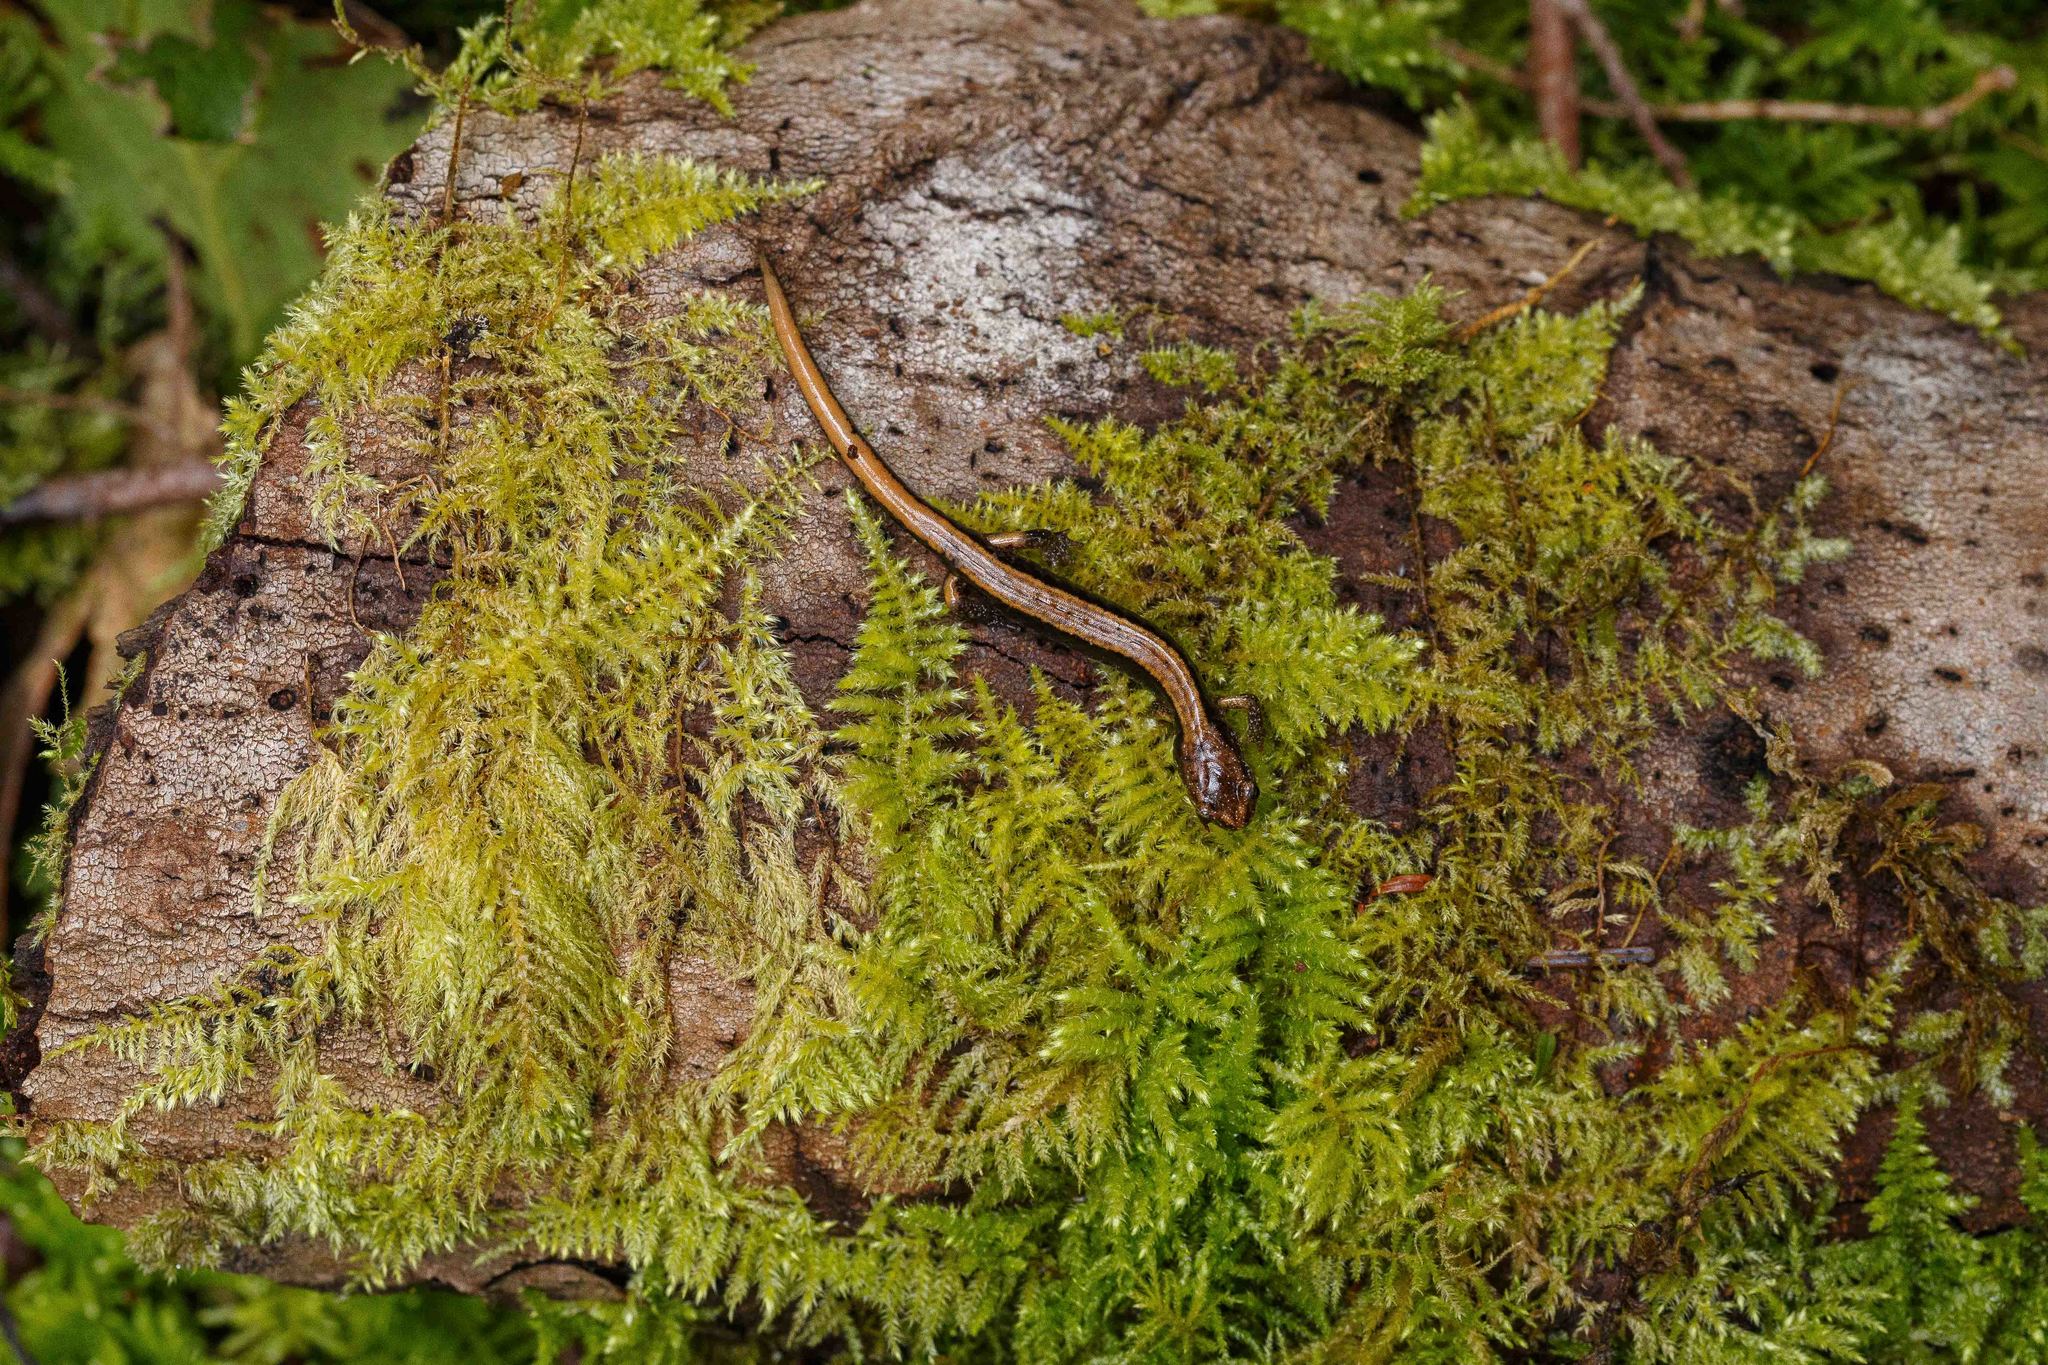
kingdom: Animalia
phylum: Chordata
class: Amphibia
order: Caudata
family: Plethodontidae
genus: Plethodon
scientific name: Plethodon vehiculum
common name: Western red-backed salamander
